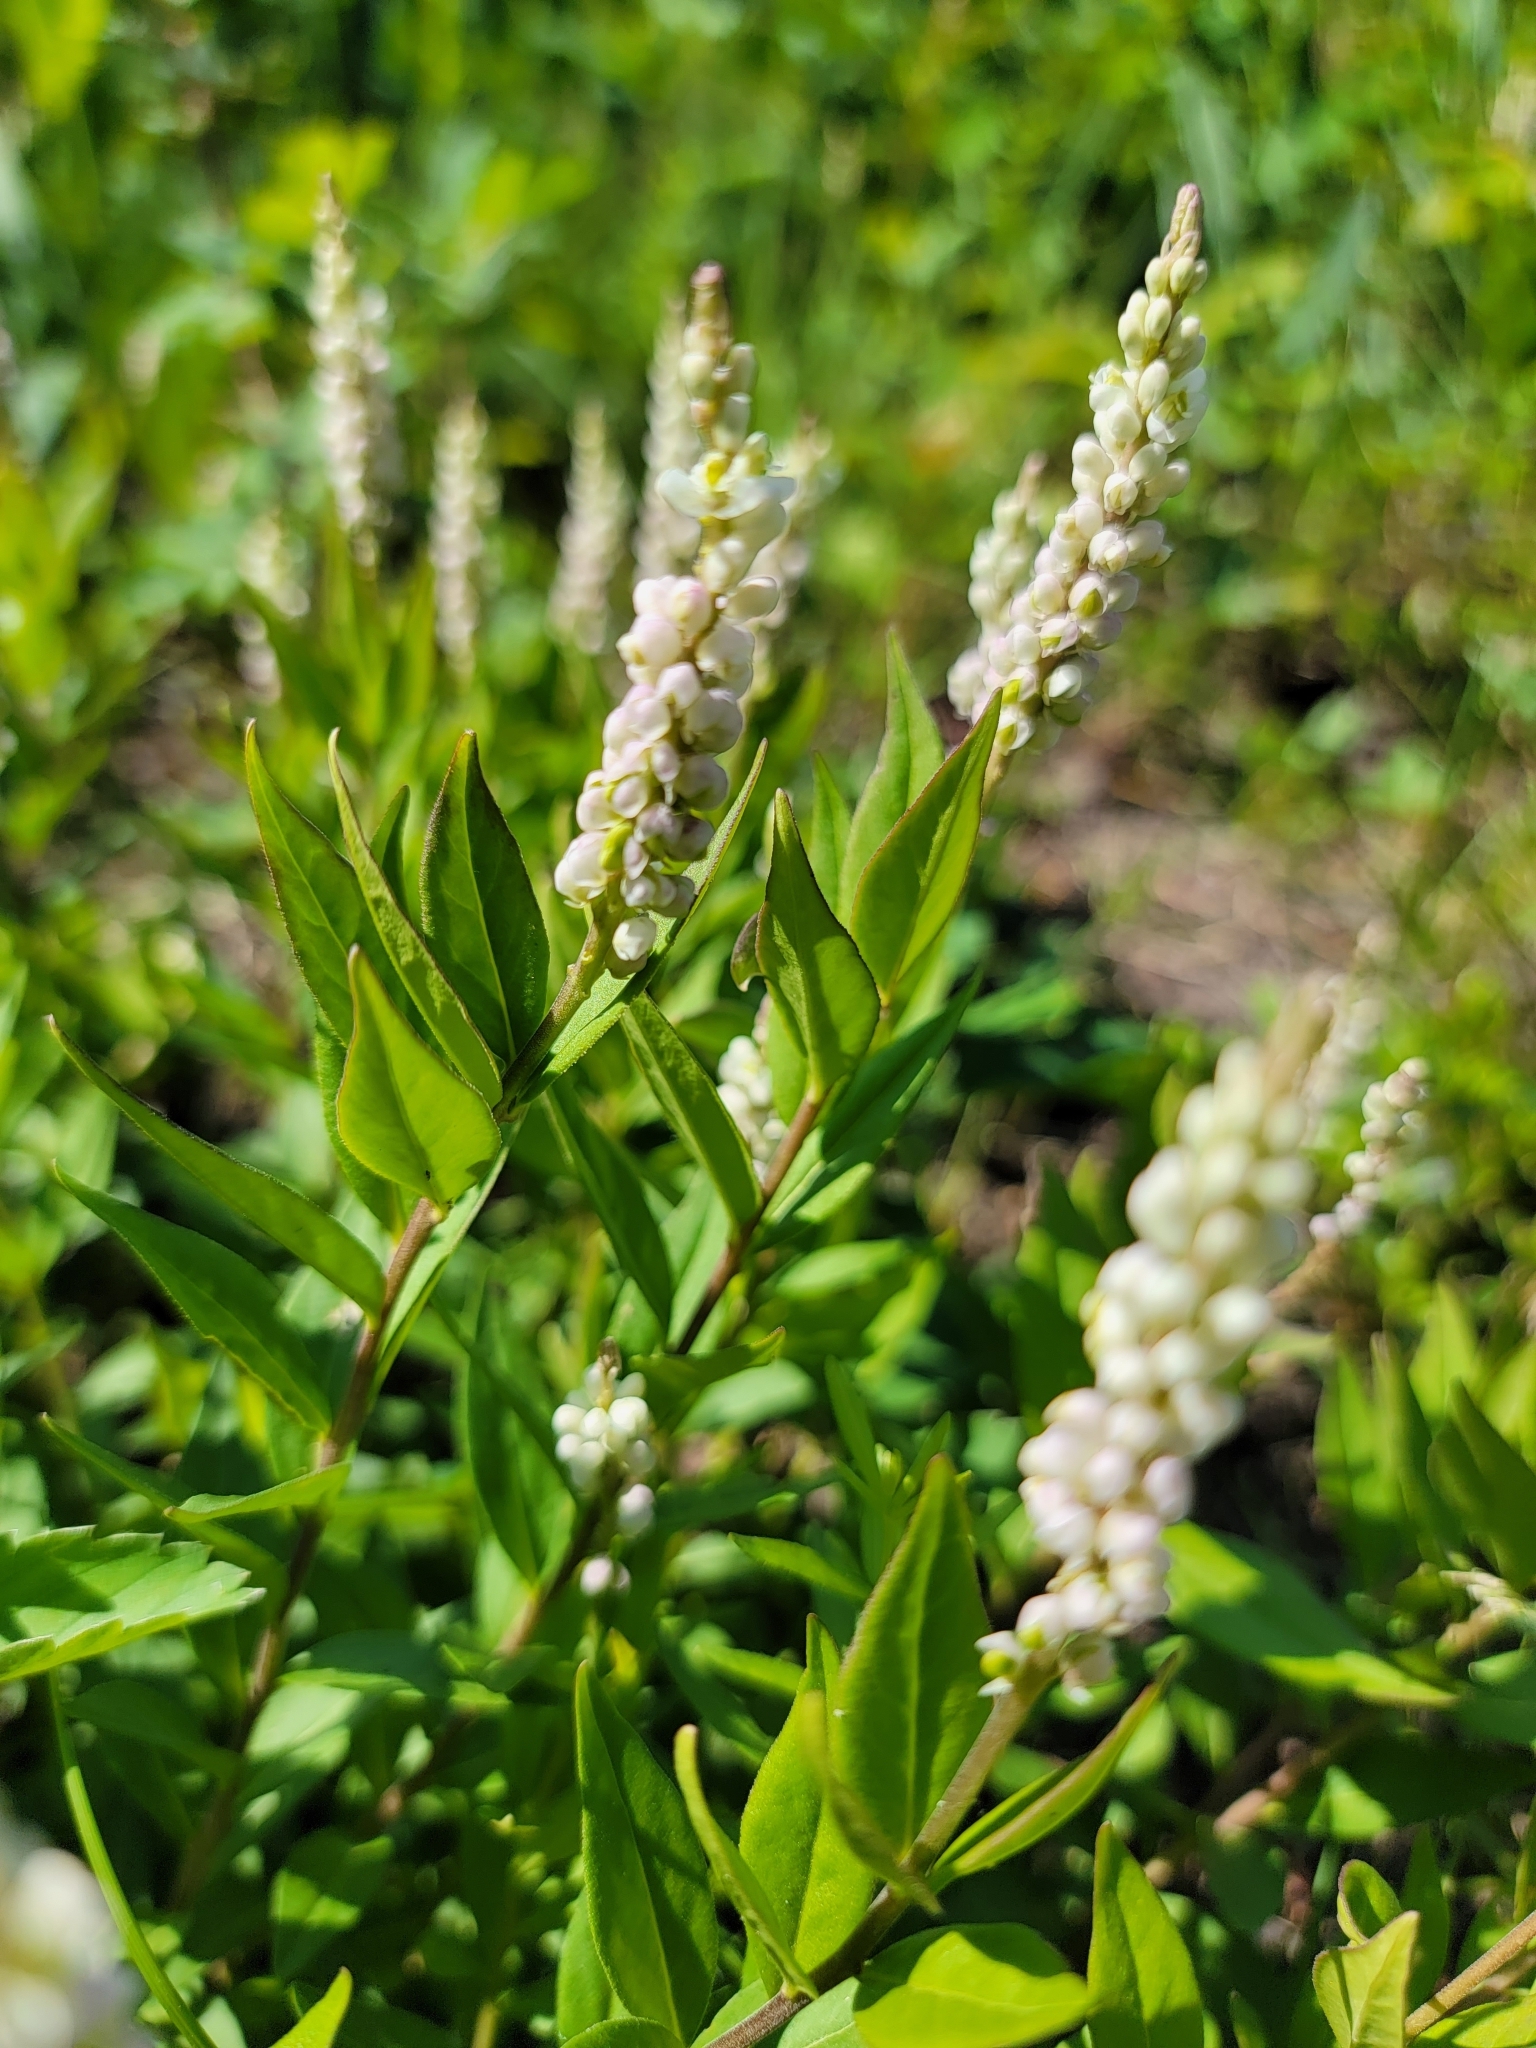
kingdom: Plantae
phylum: Tracheophyta
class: Magnoliopsida
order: Fabales
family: Polygalaceae
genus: Polygala
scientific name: Polygala senega
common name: Seneca snakeroot
